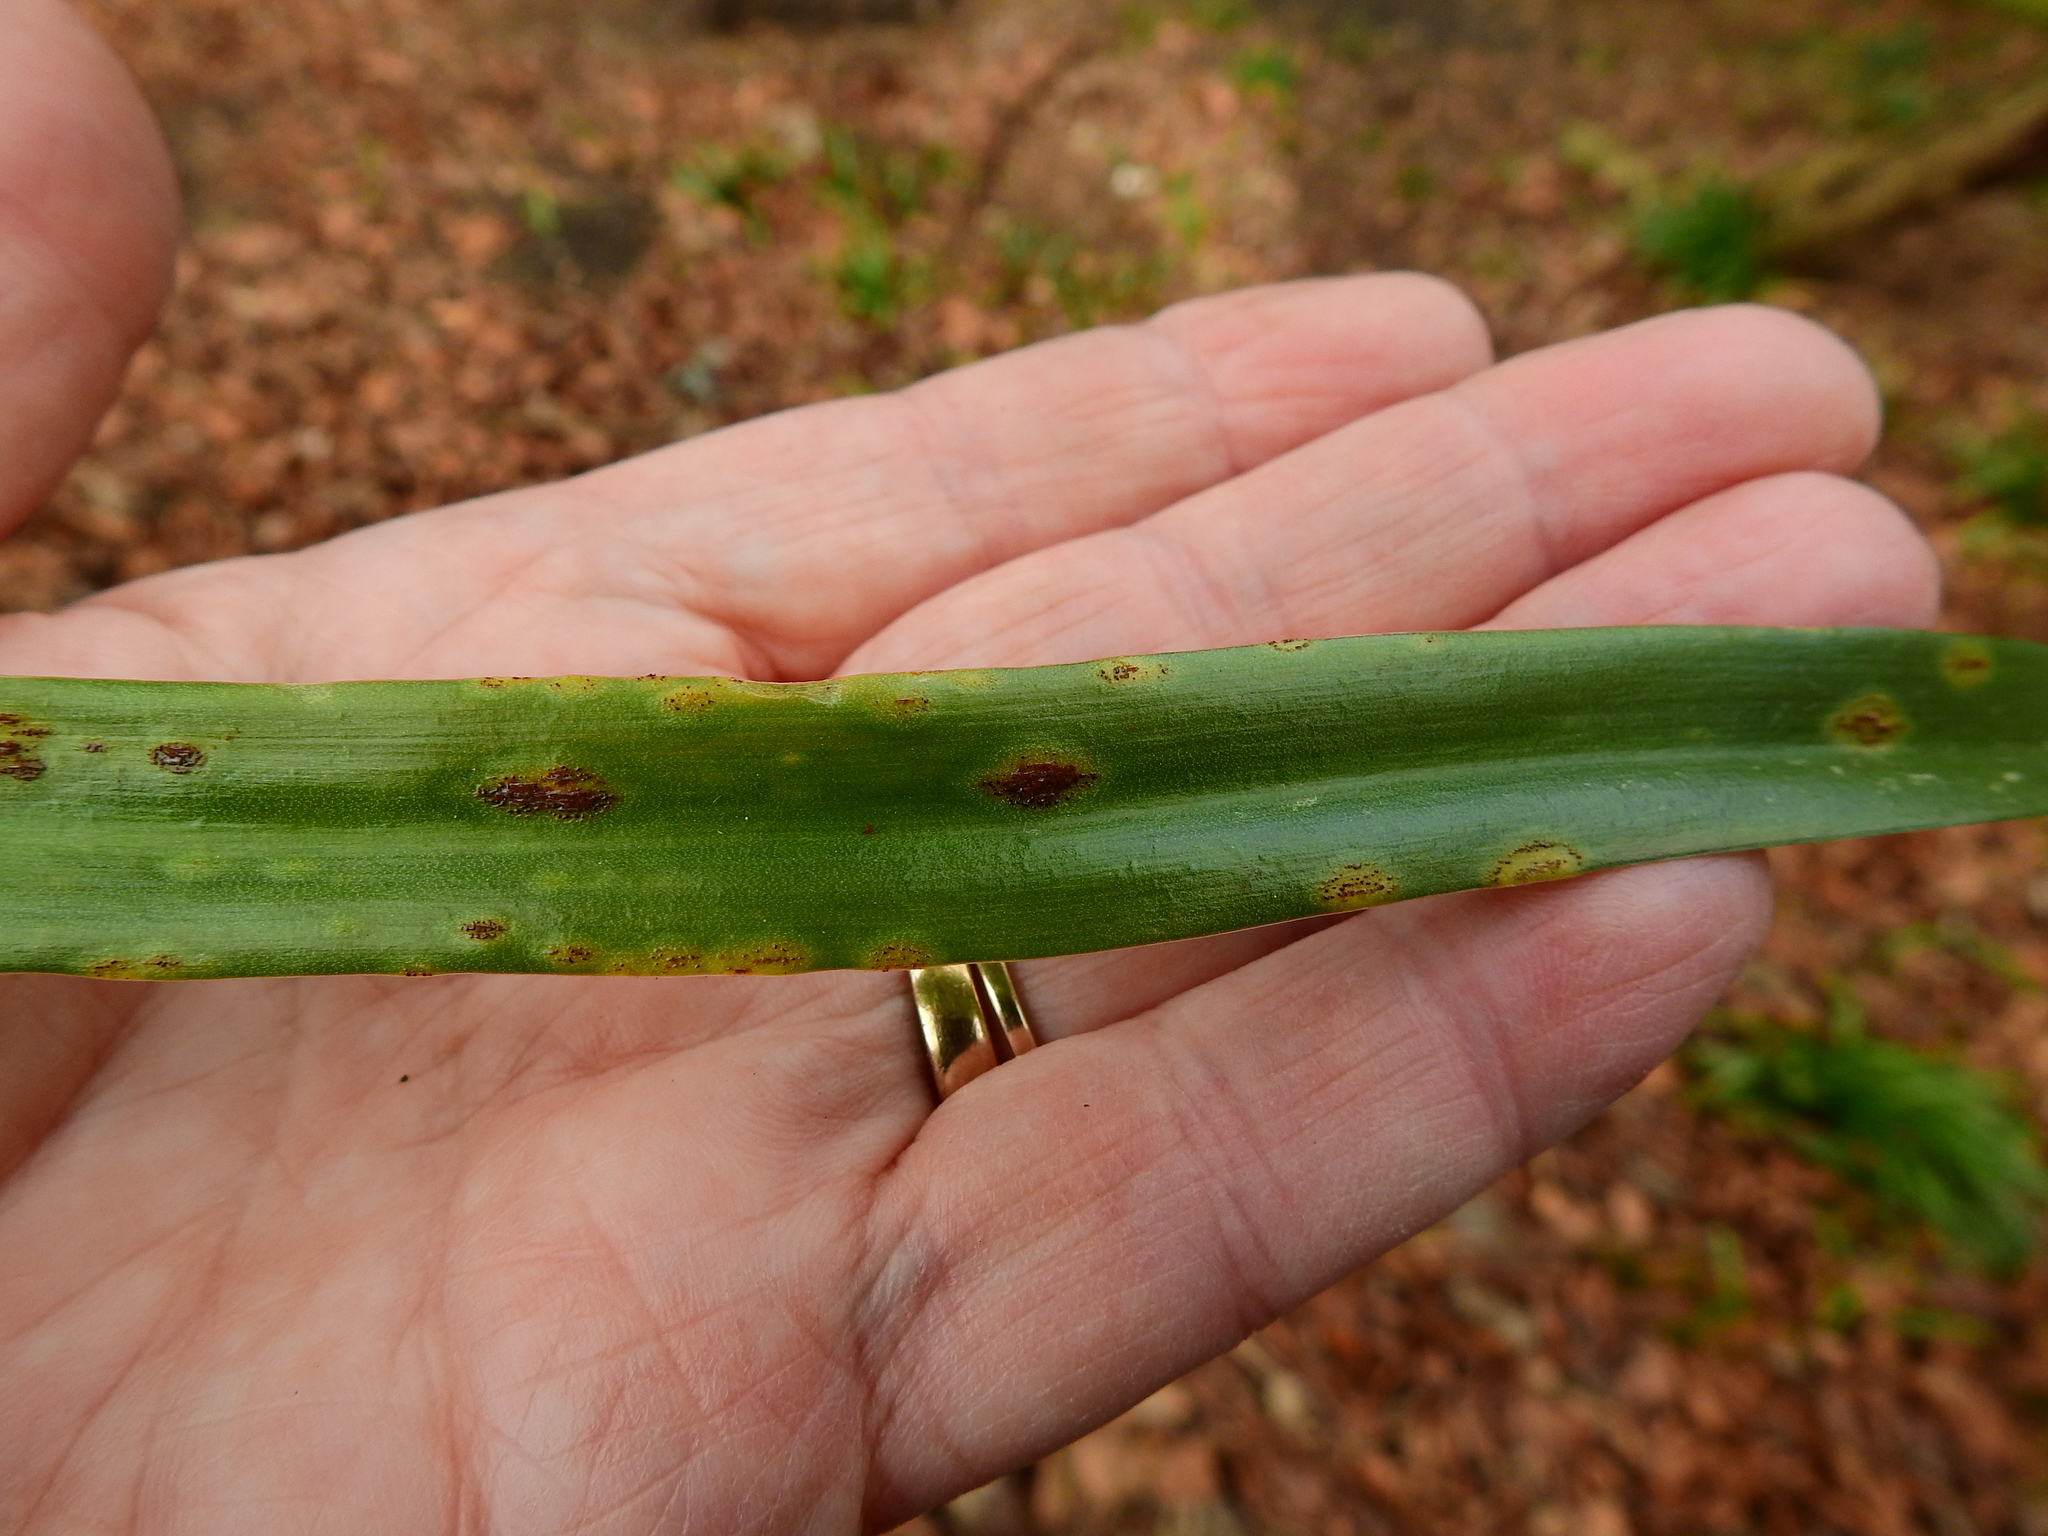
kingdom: Fungi
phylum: Basidiomycota
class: Pucciniomycetes
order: Pucciniales
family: Pucciniaceae
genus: Uromyces
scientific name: Uromyces hyacinthi
